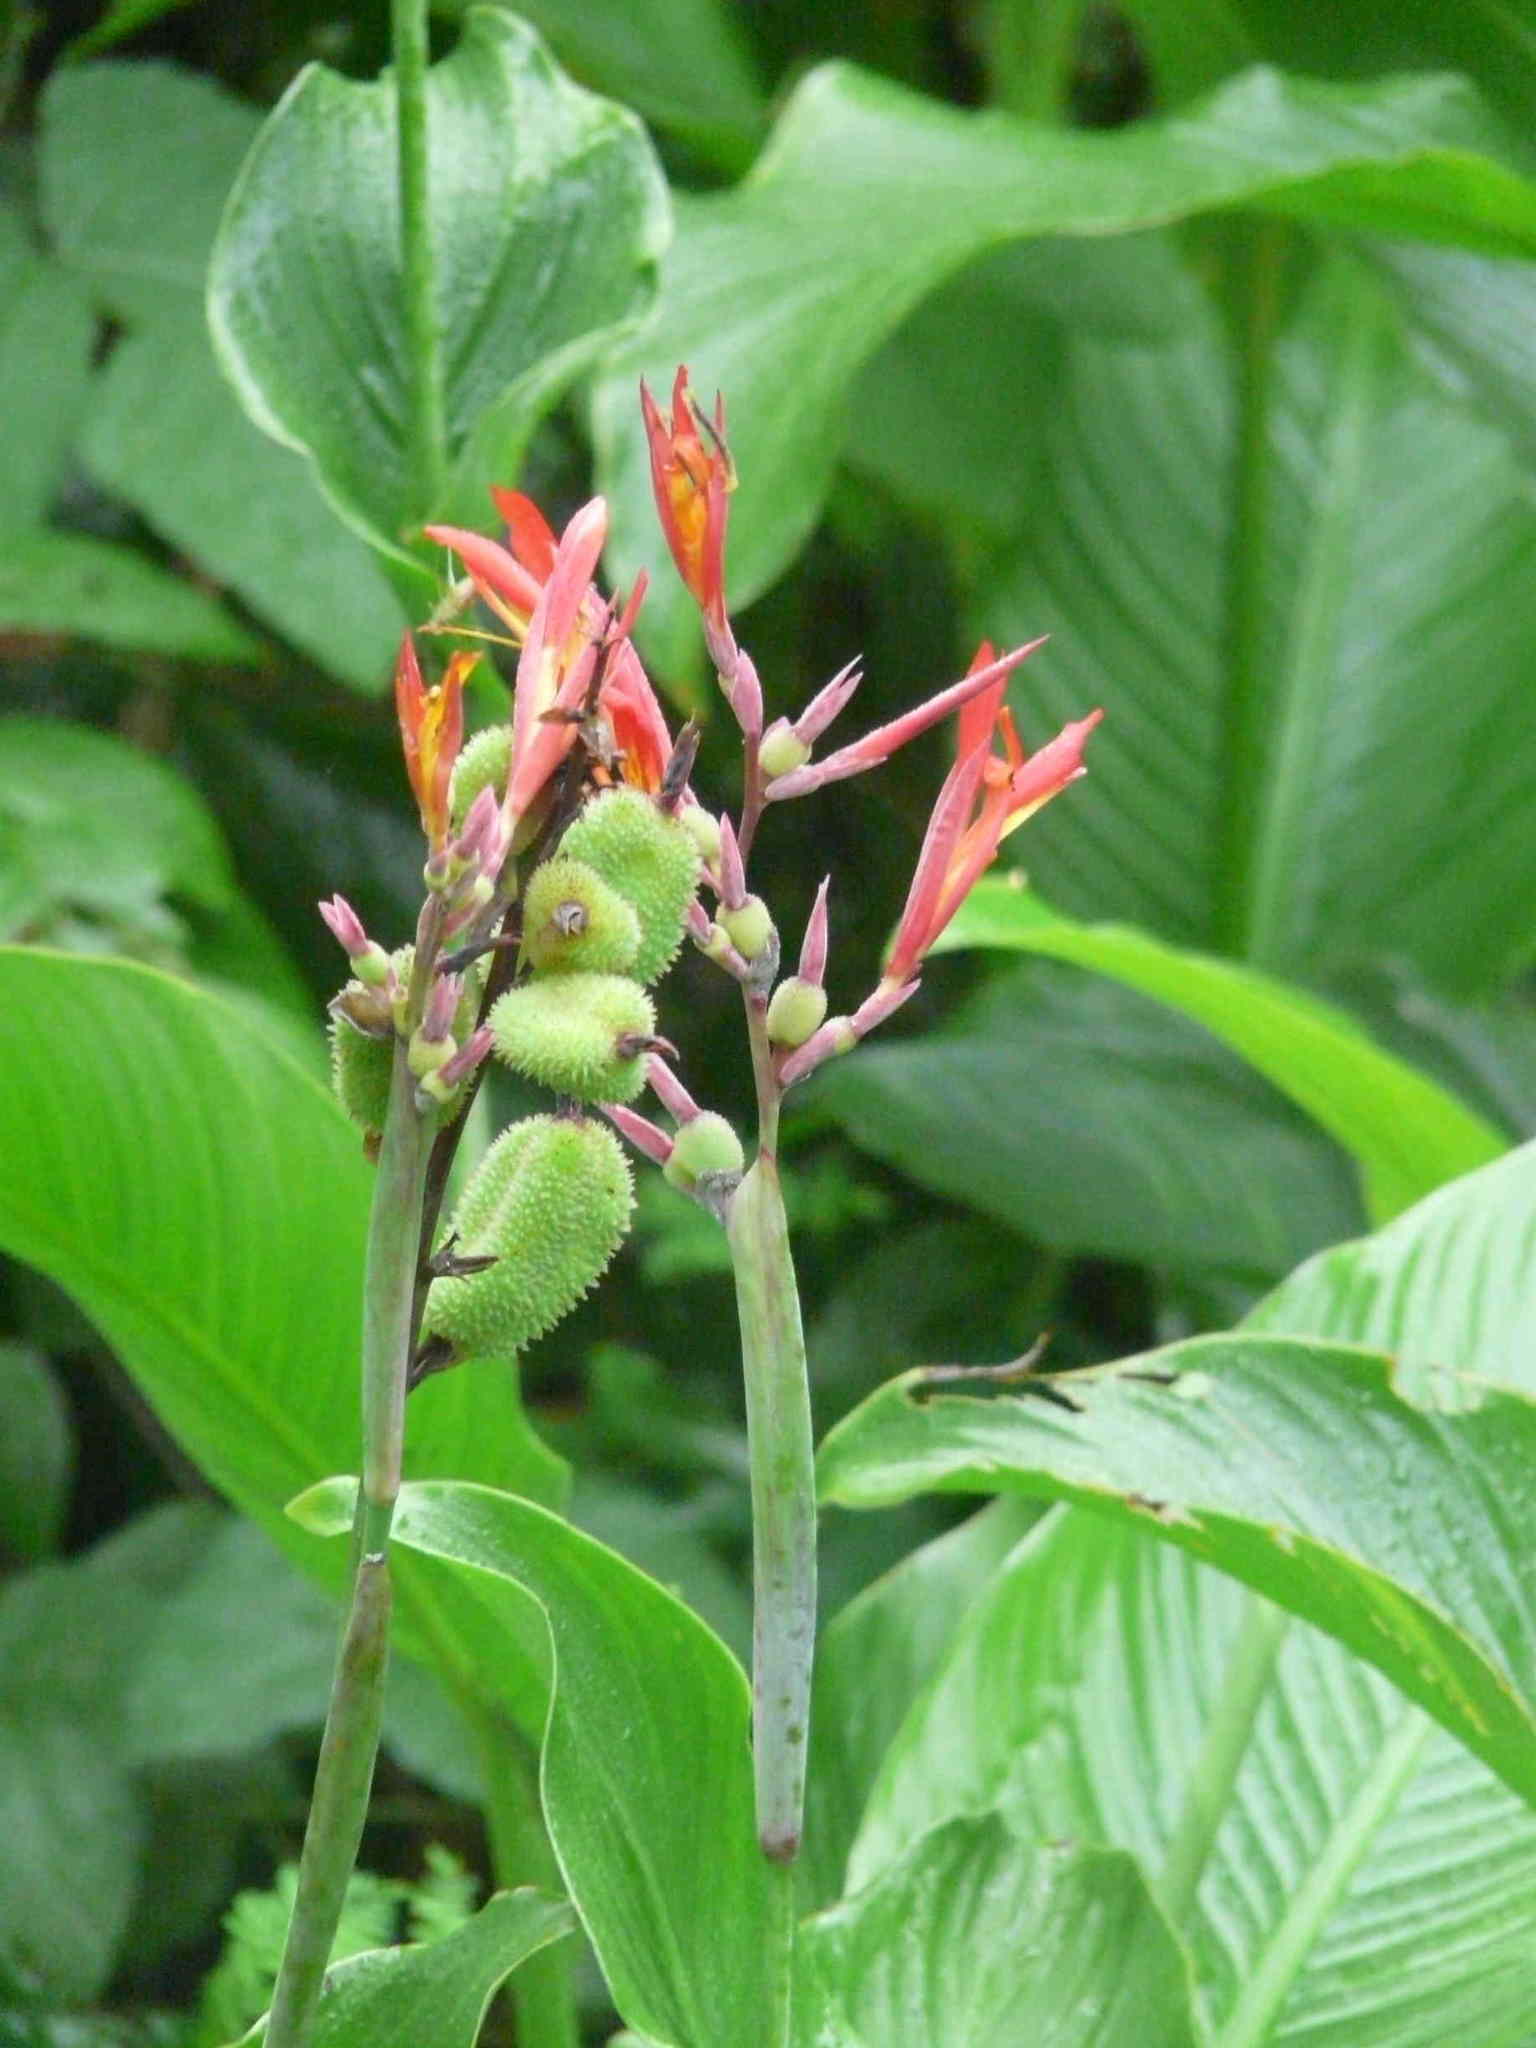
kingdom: Plantae
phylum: Tracheophyta
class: Liliopsida
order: Zingiberales
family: Cannaceae
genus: Canna
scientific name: Canna indica
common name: Indian shot
